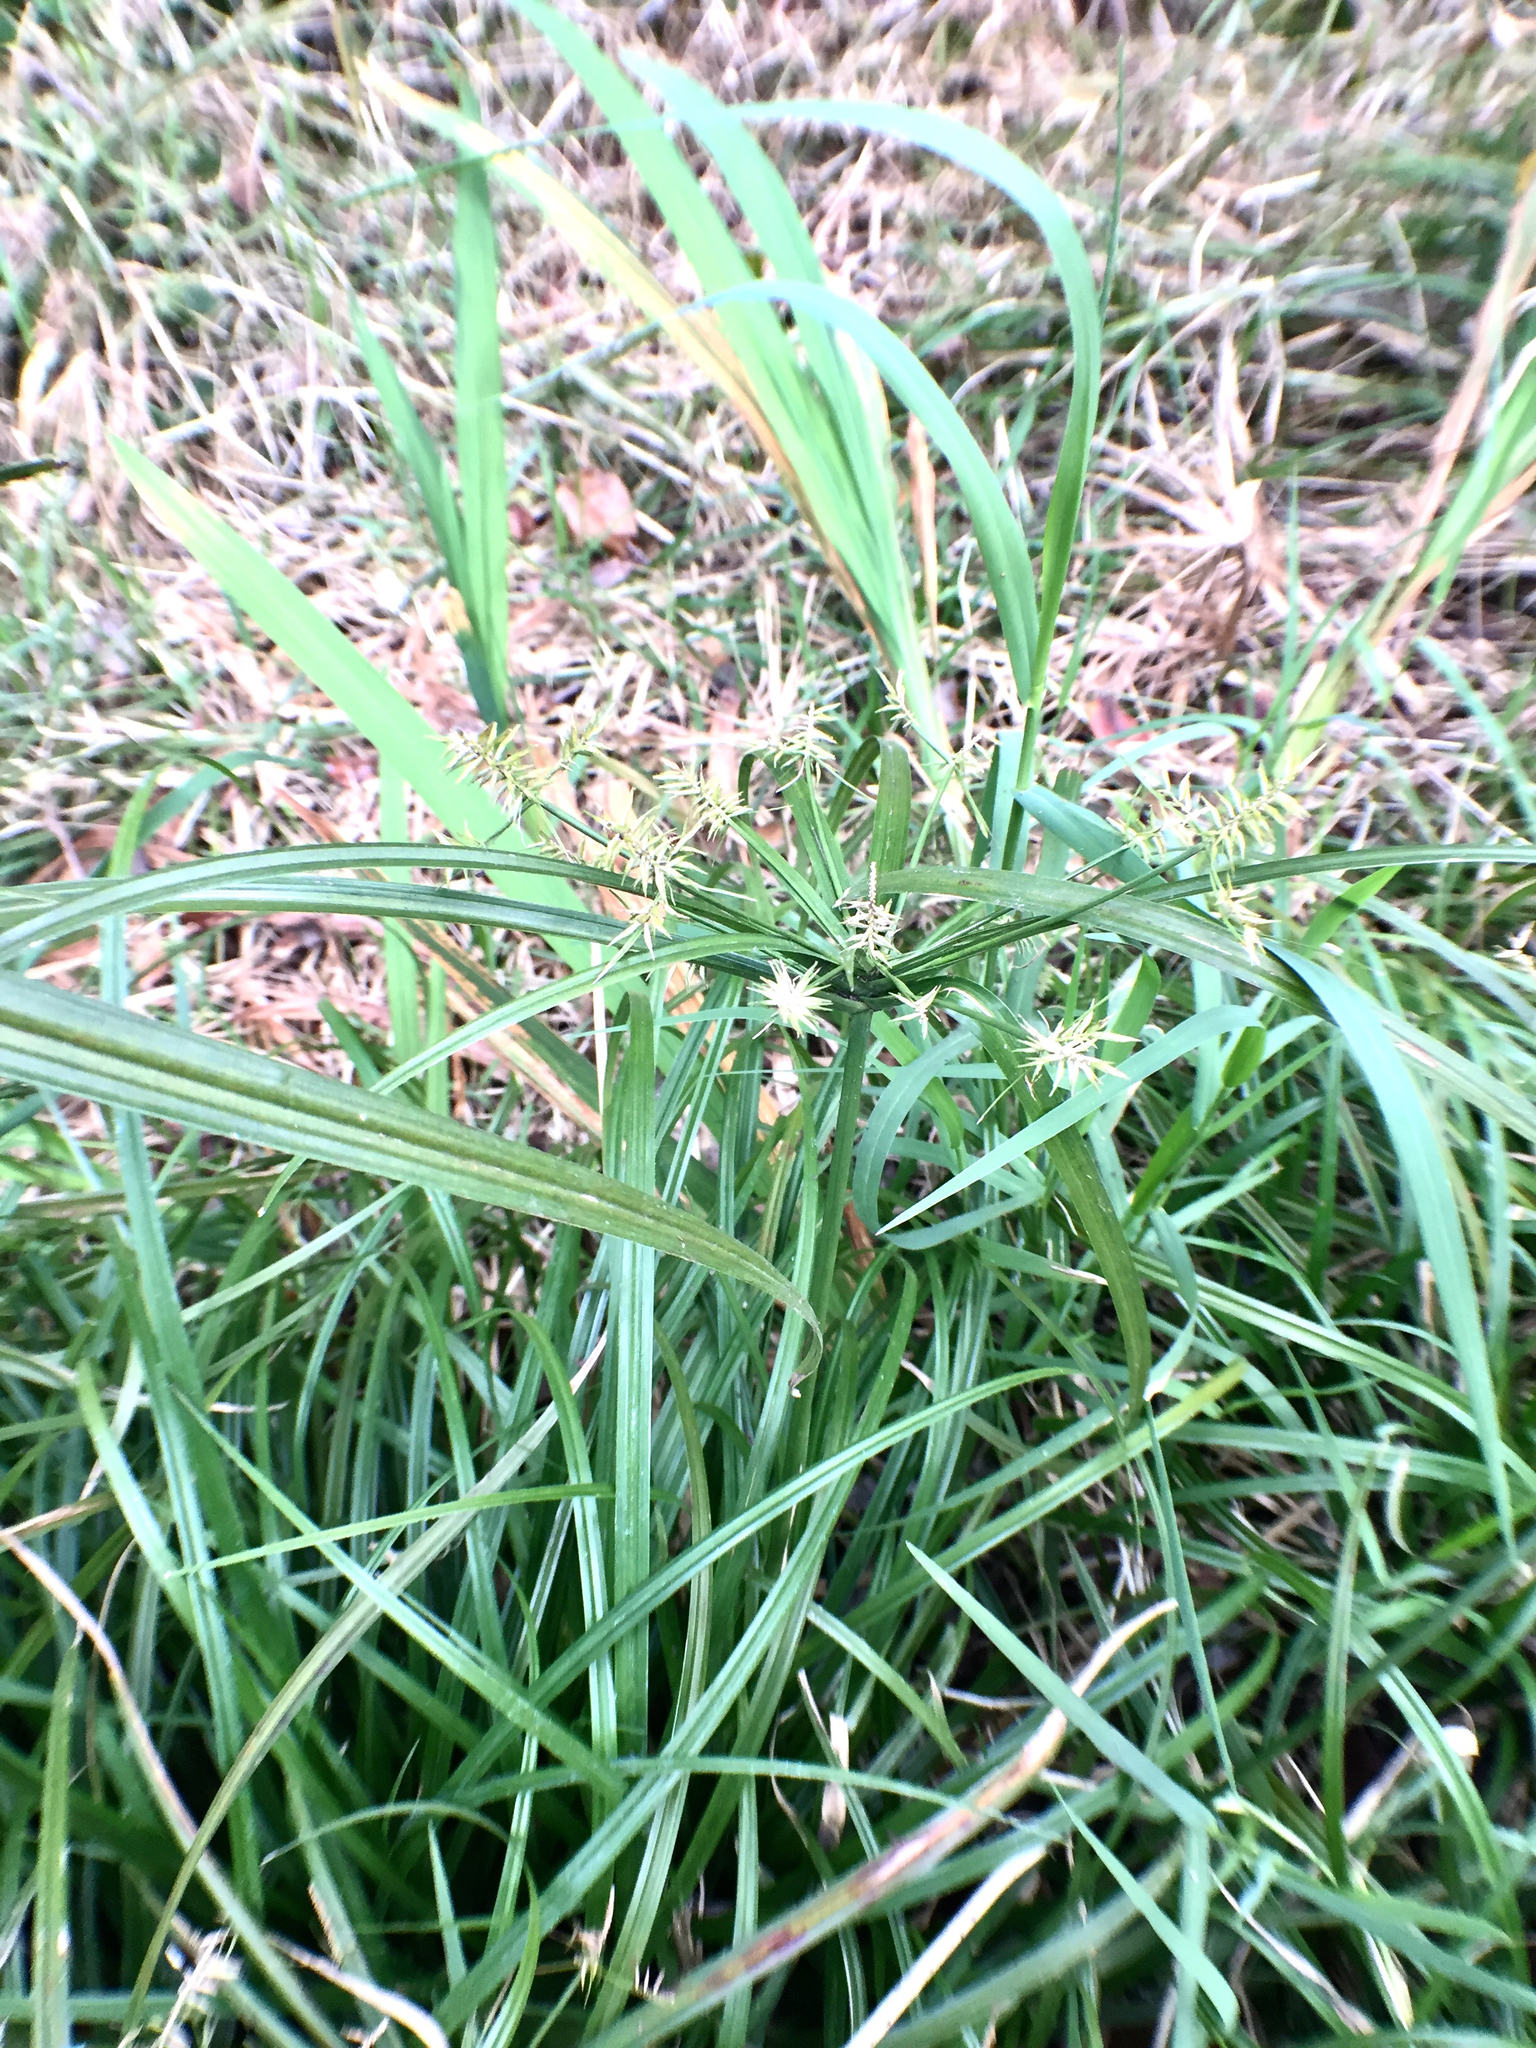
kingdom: Plantae
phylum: Tracheophyta
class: Liliopsida
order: Poales
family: Cyperaceae
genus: Cyperus
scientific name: Cyperus meyenianus
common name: Meyen's flatsedge
